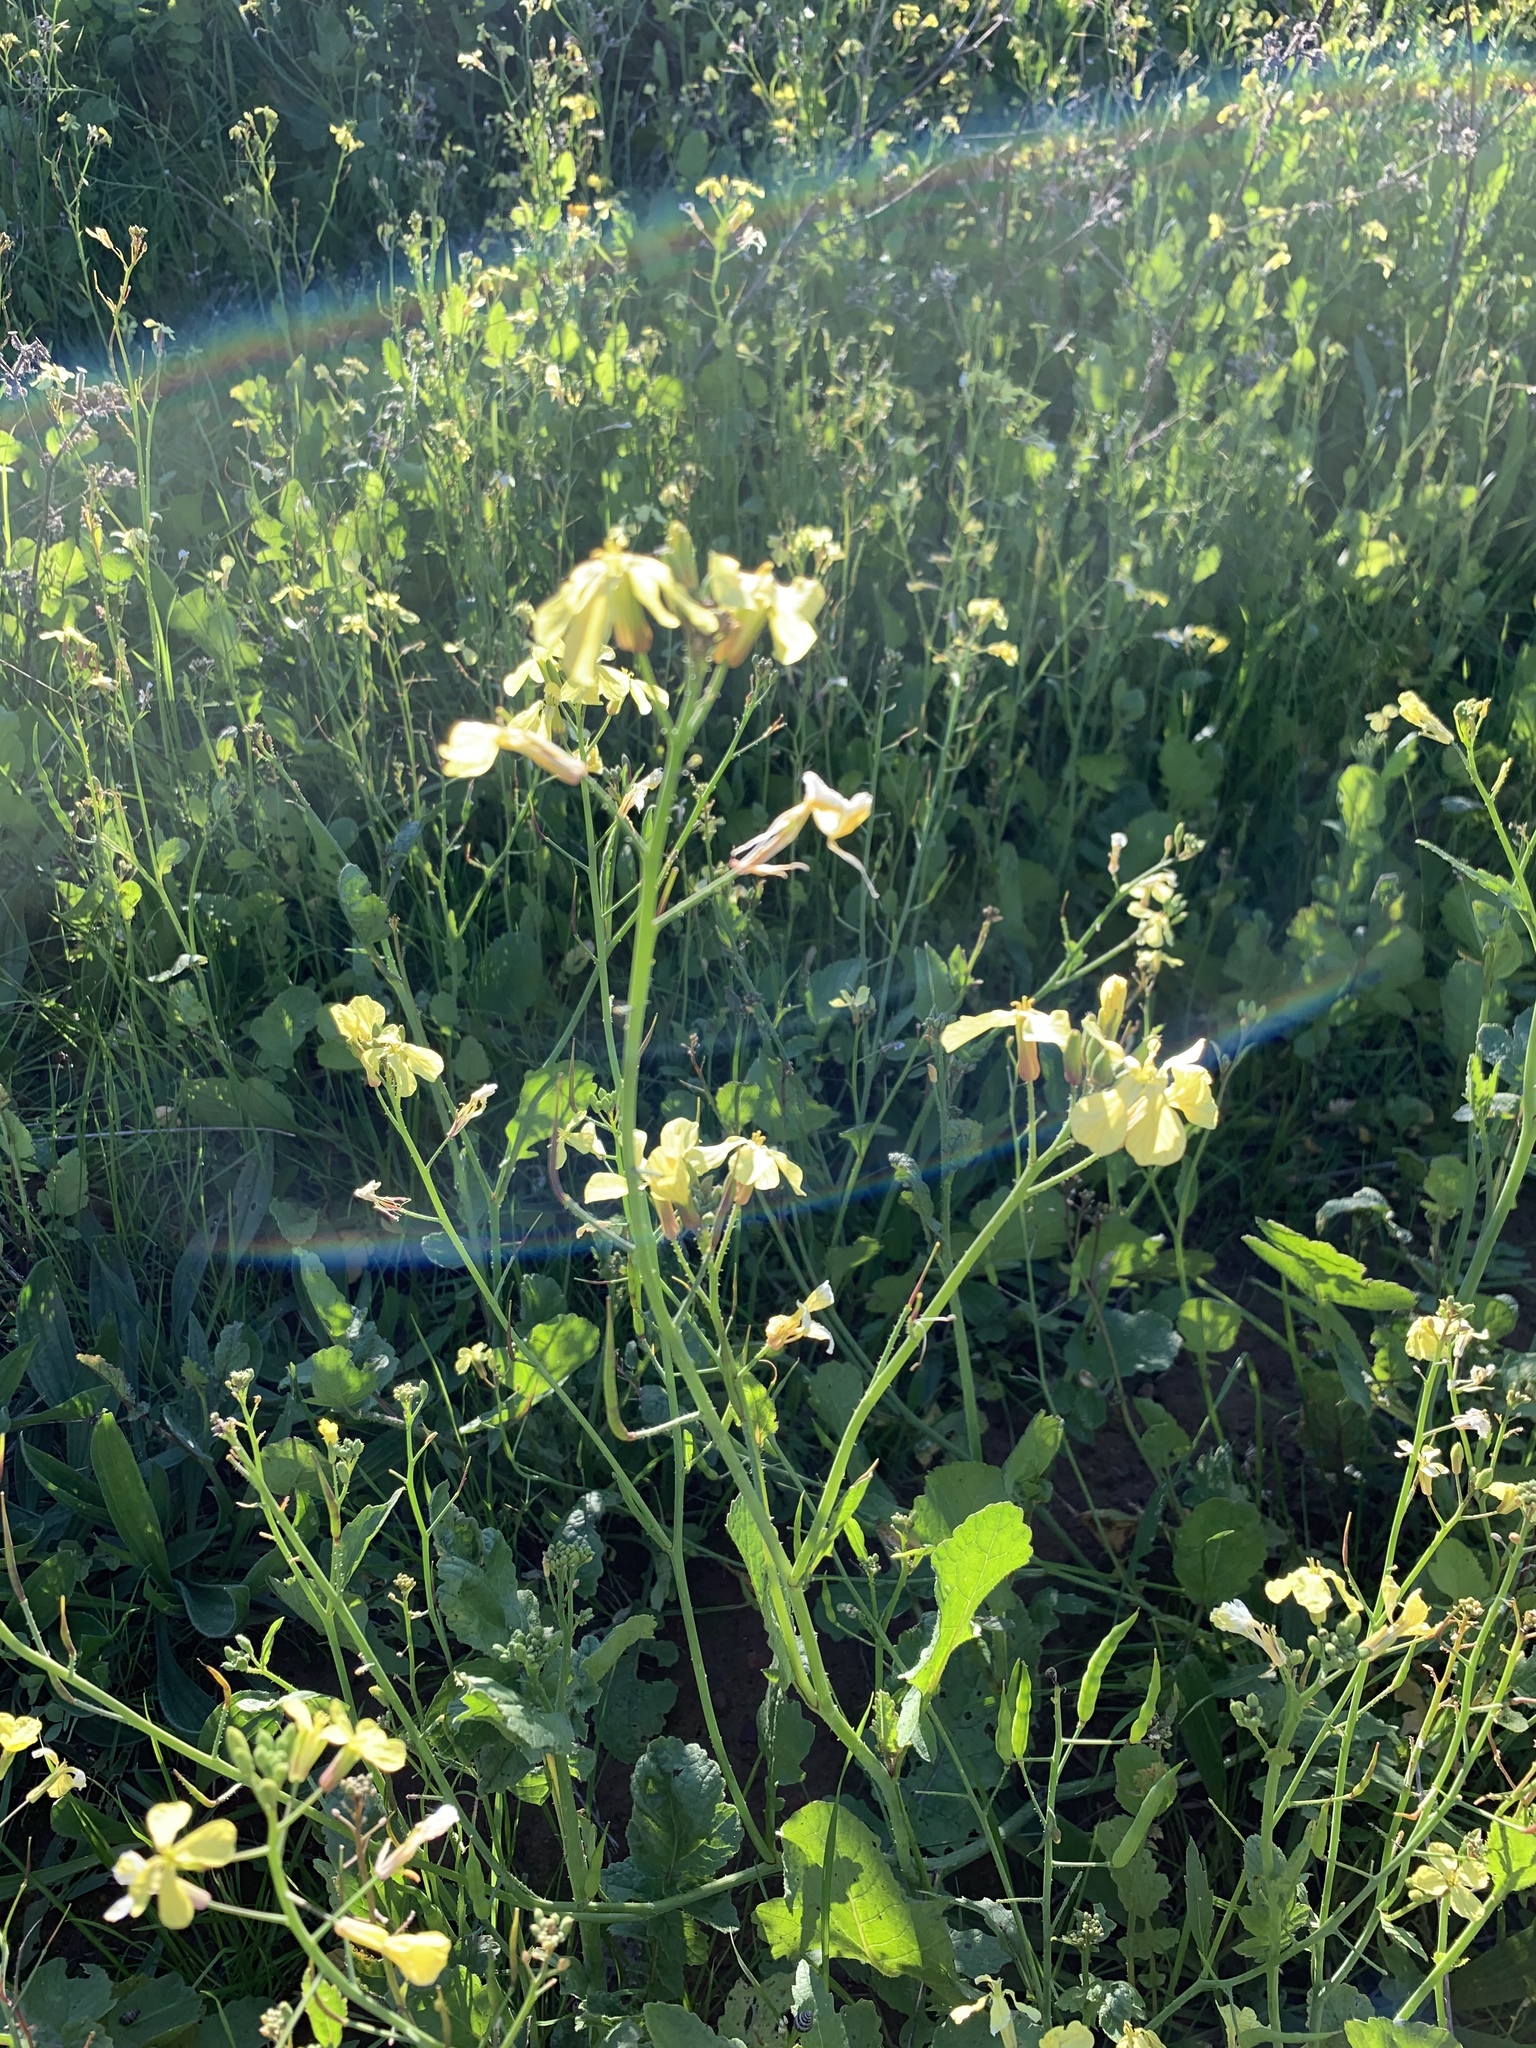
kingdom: Plantae
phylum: Tracheophyta
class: Magnoliopsida
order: Brassicales
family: Brassicaceae
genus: Raphanus
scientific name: Raphanus raphanistrum
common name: Wild radish
